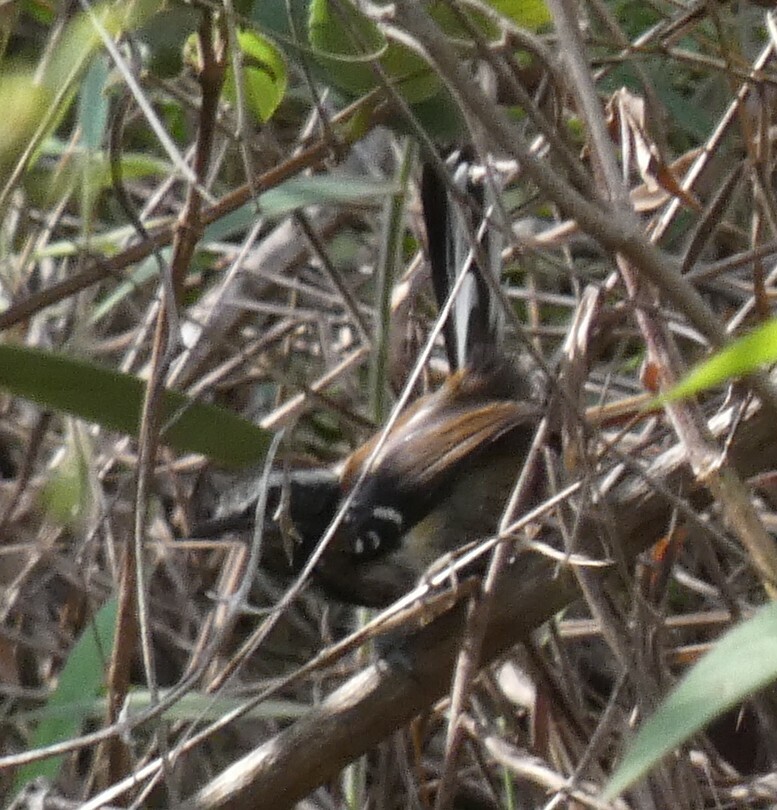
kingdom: Animalia
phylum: Chordata
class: Aves
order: Passeriformes
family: Thamnophilidae
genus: Myrmeciza
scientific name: Myrmeciza loricata
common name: White-bibbed antbird
